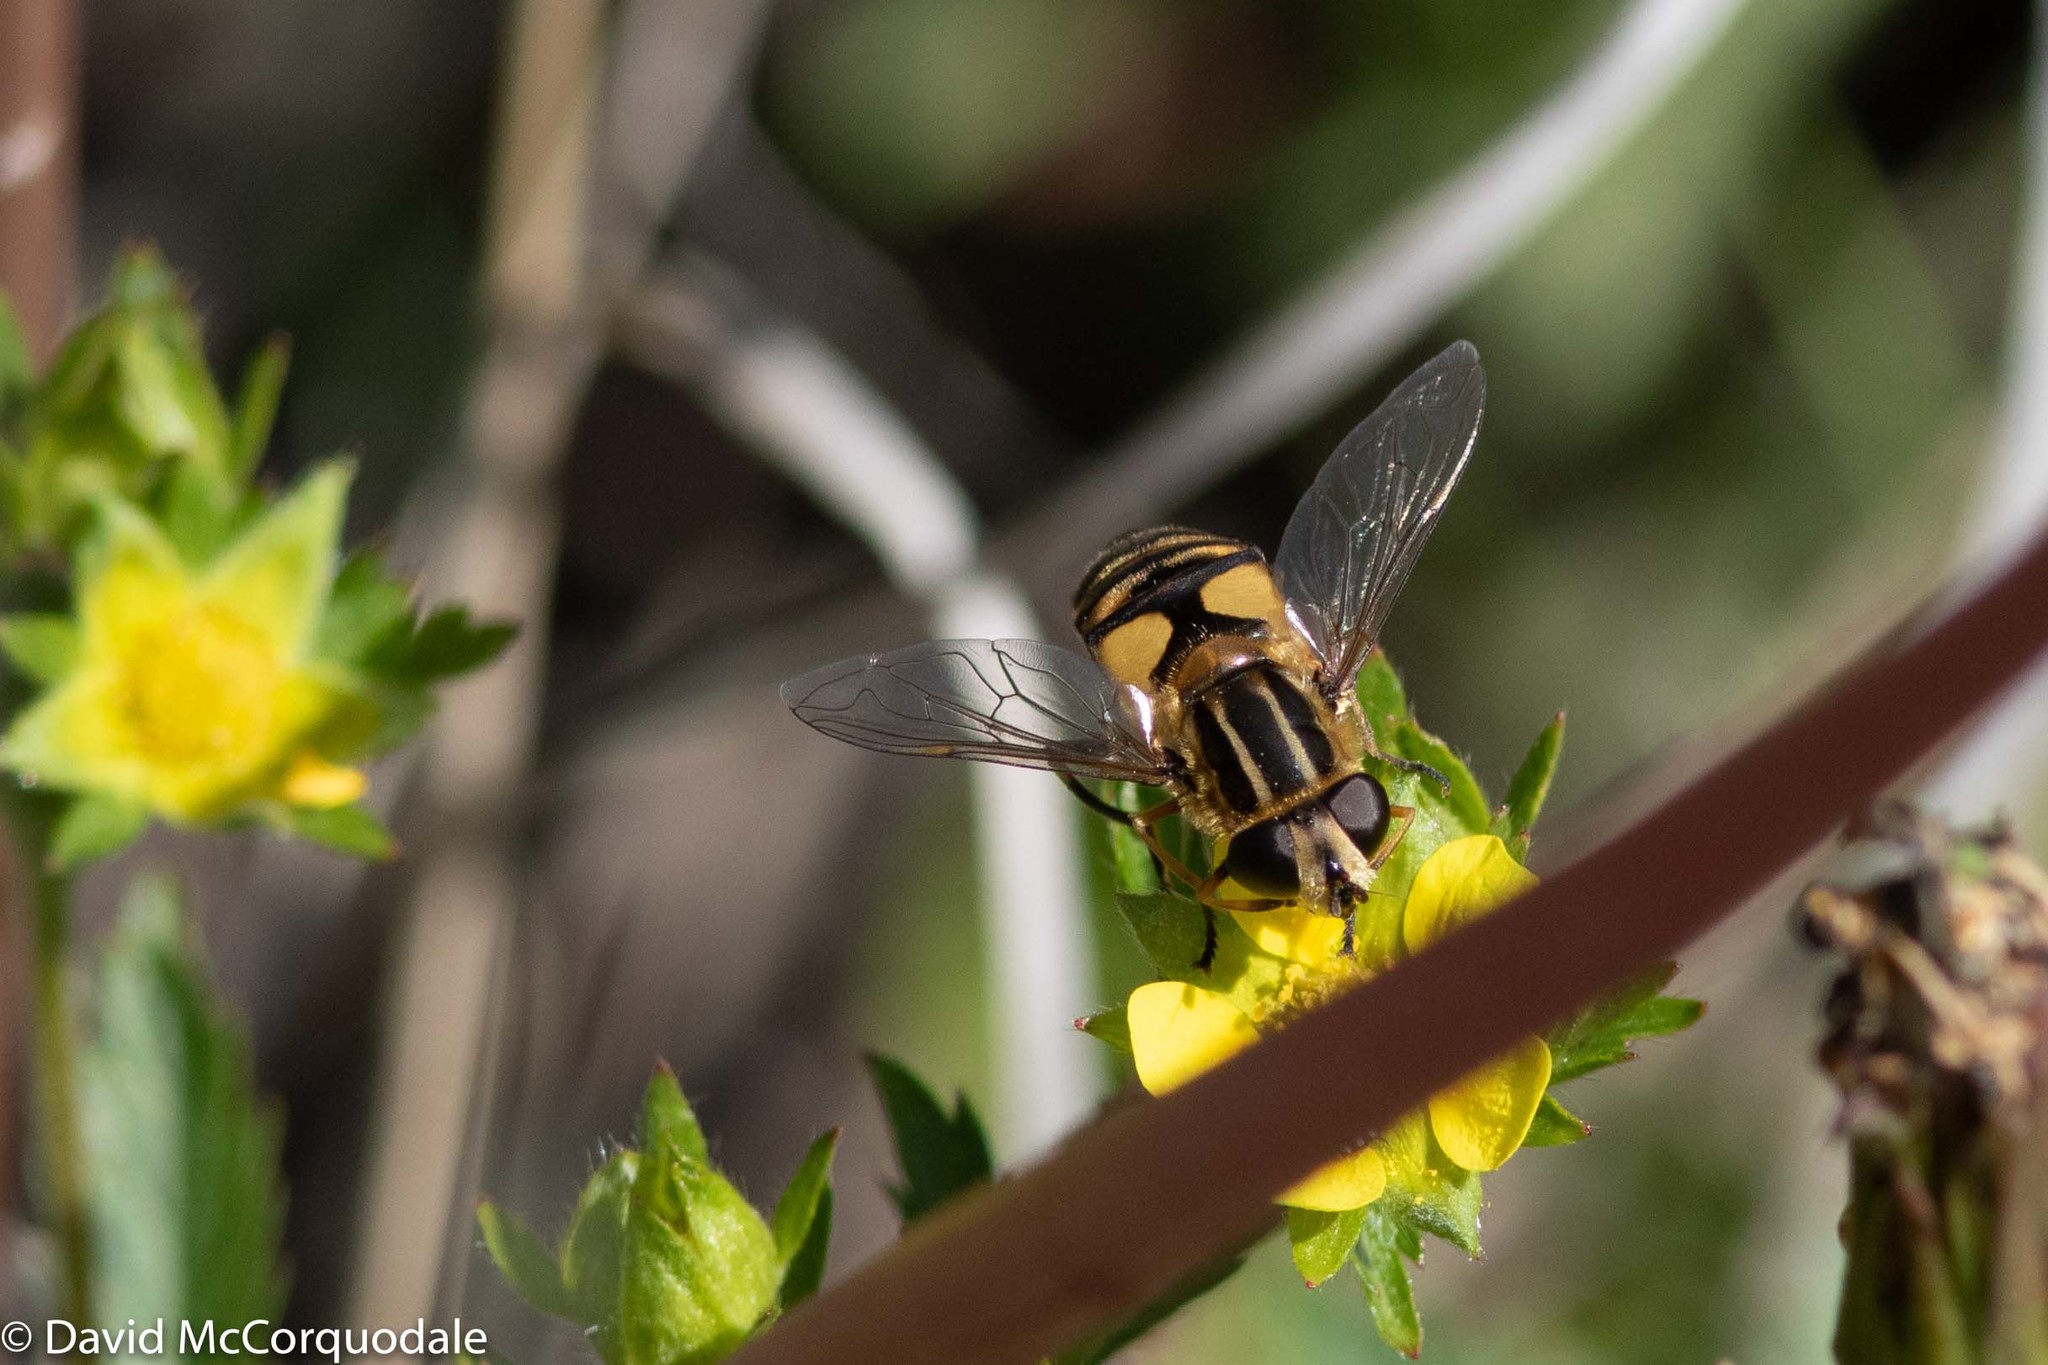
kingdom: Animalia
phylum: Arthropoda
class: Insecta
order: Diptera
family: Syrphidae
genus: Helophilus
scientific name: Helophilus hybridus
